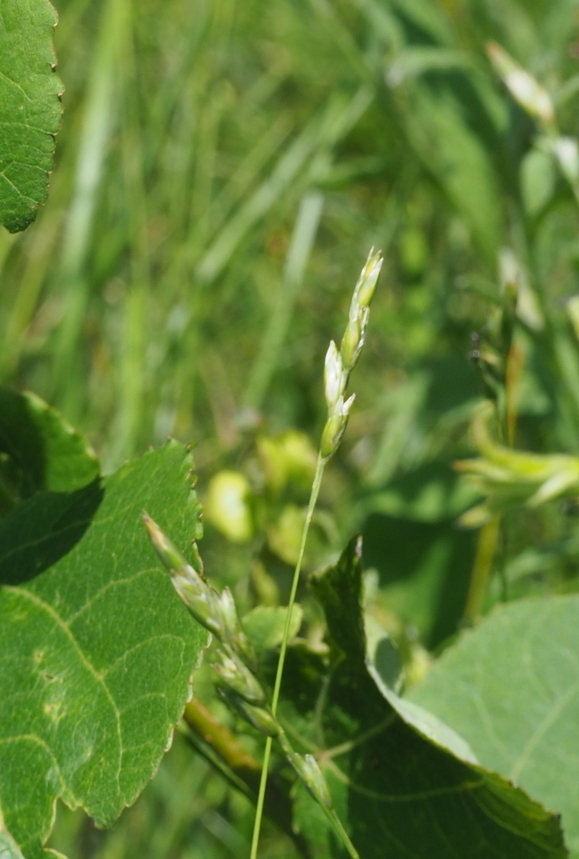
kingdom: Plantae
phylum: Tracheophyta
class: Liliopsida
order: Poales
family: Poaceae
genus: Danthonia
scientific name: Danthonia decumbens
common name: Common heathgrass
